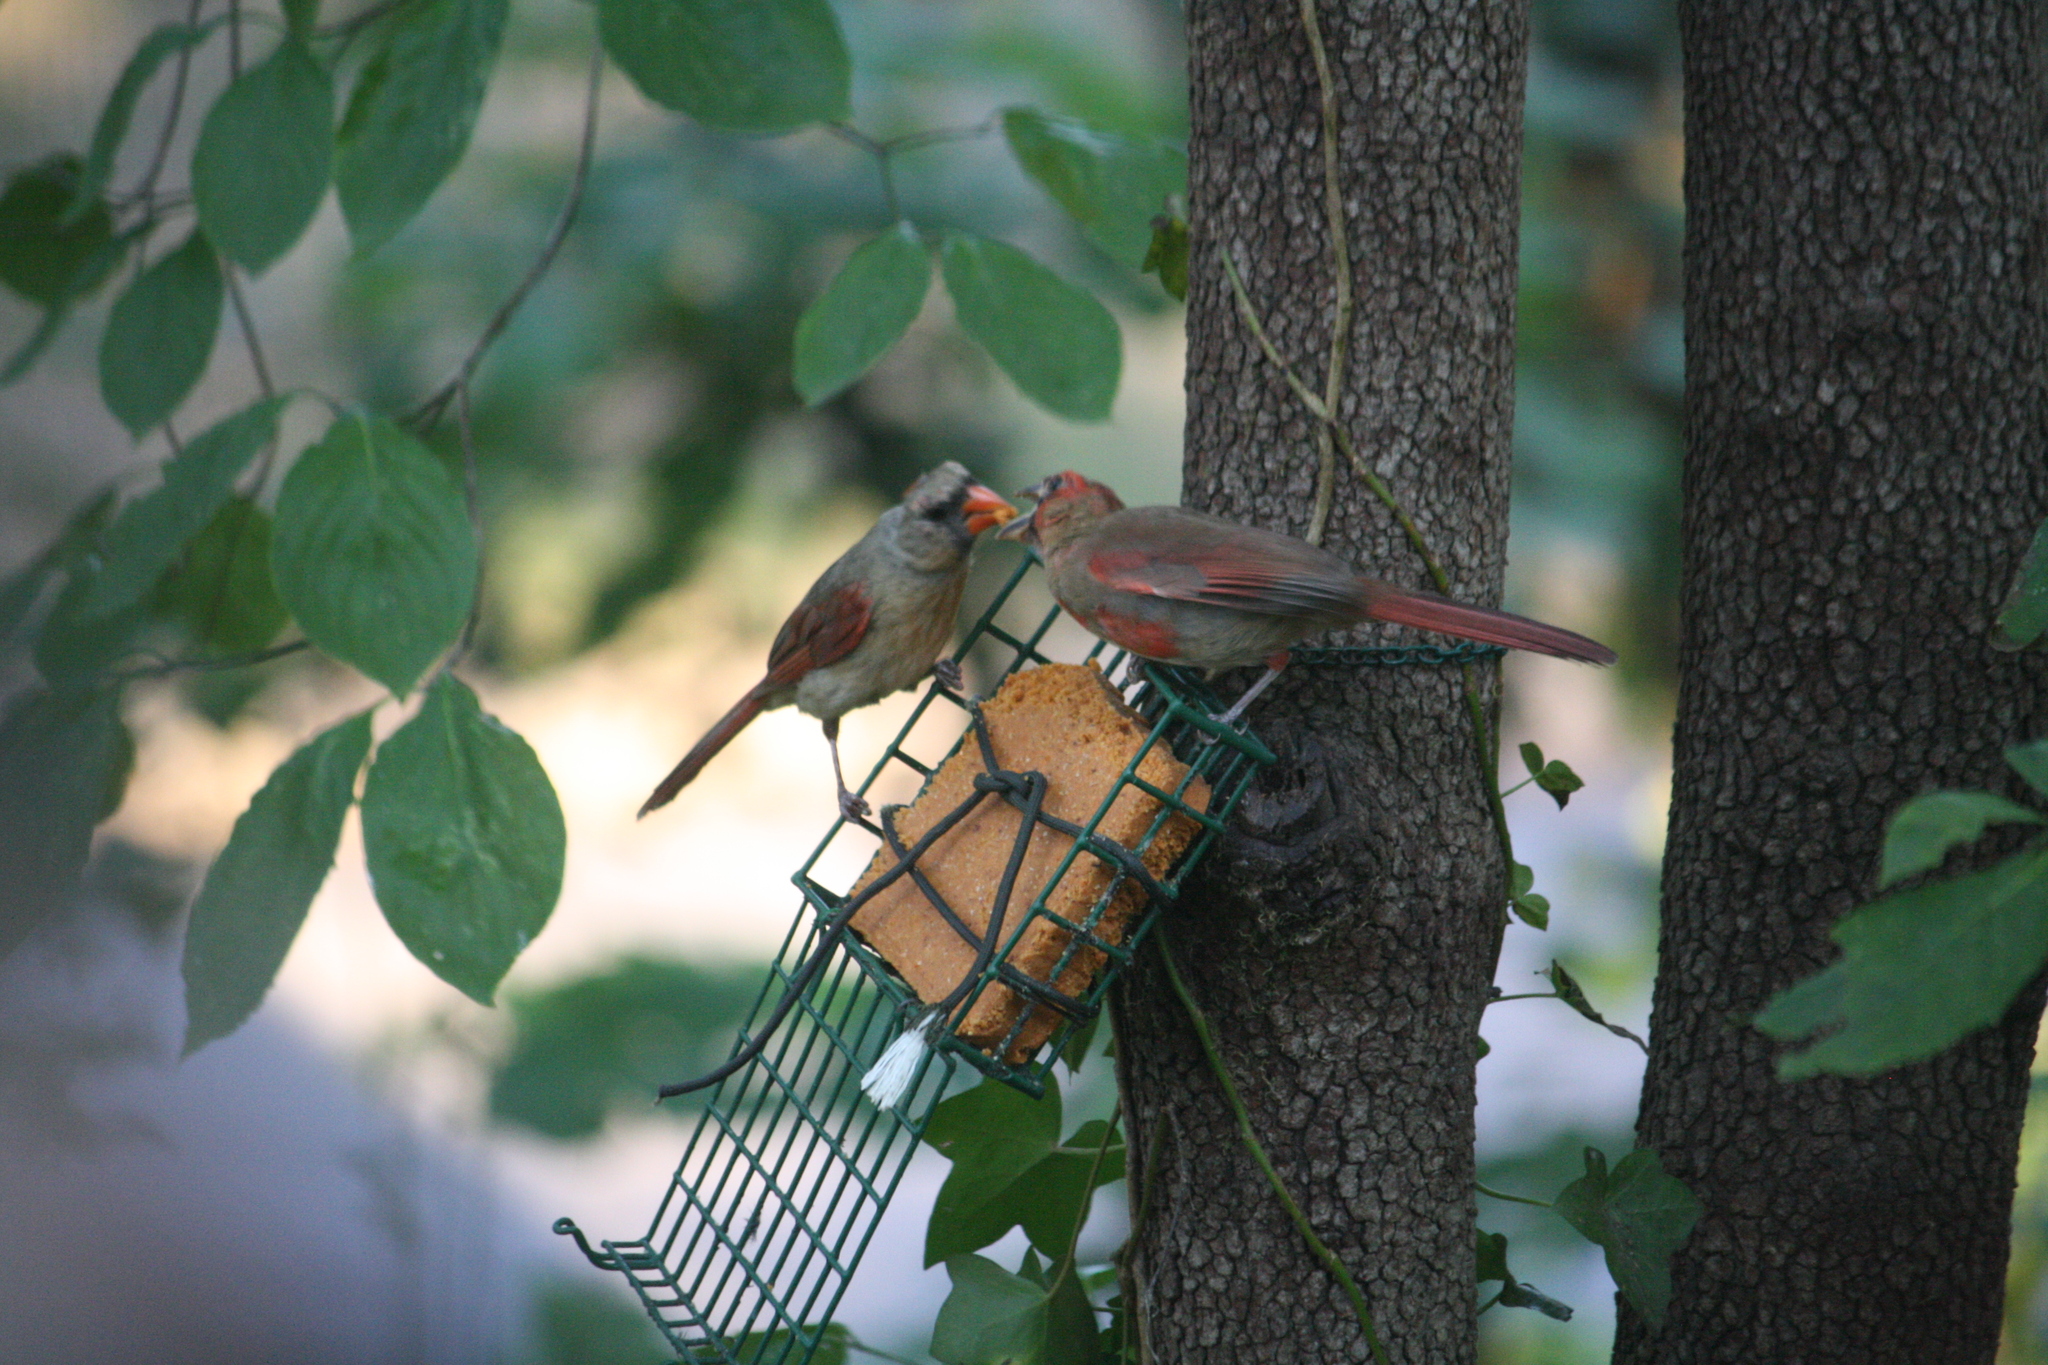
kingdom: Animalia
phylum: Chordata
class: Aves
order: Passeriformes
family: Cardinalidae
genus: Cardinalis
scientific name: Cardinalis cardinalis
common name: Northern cardinal
